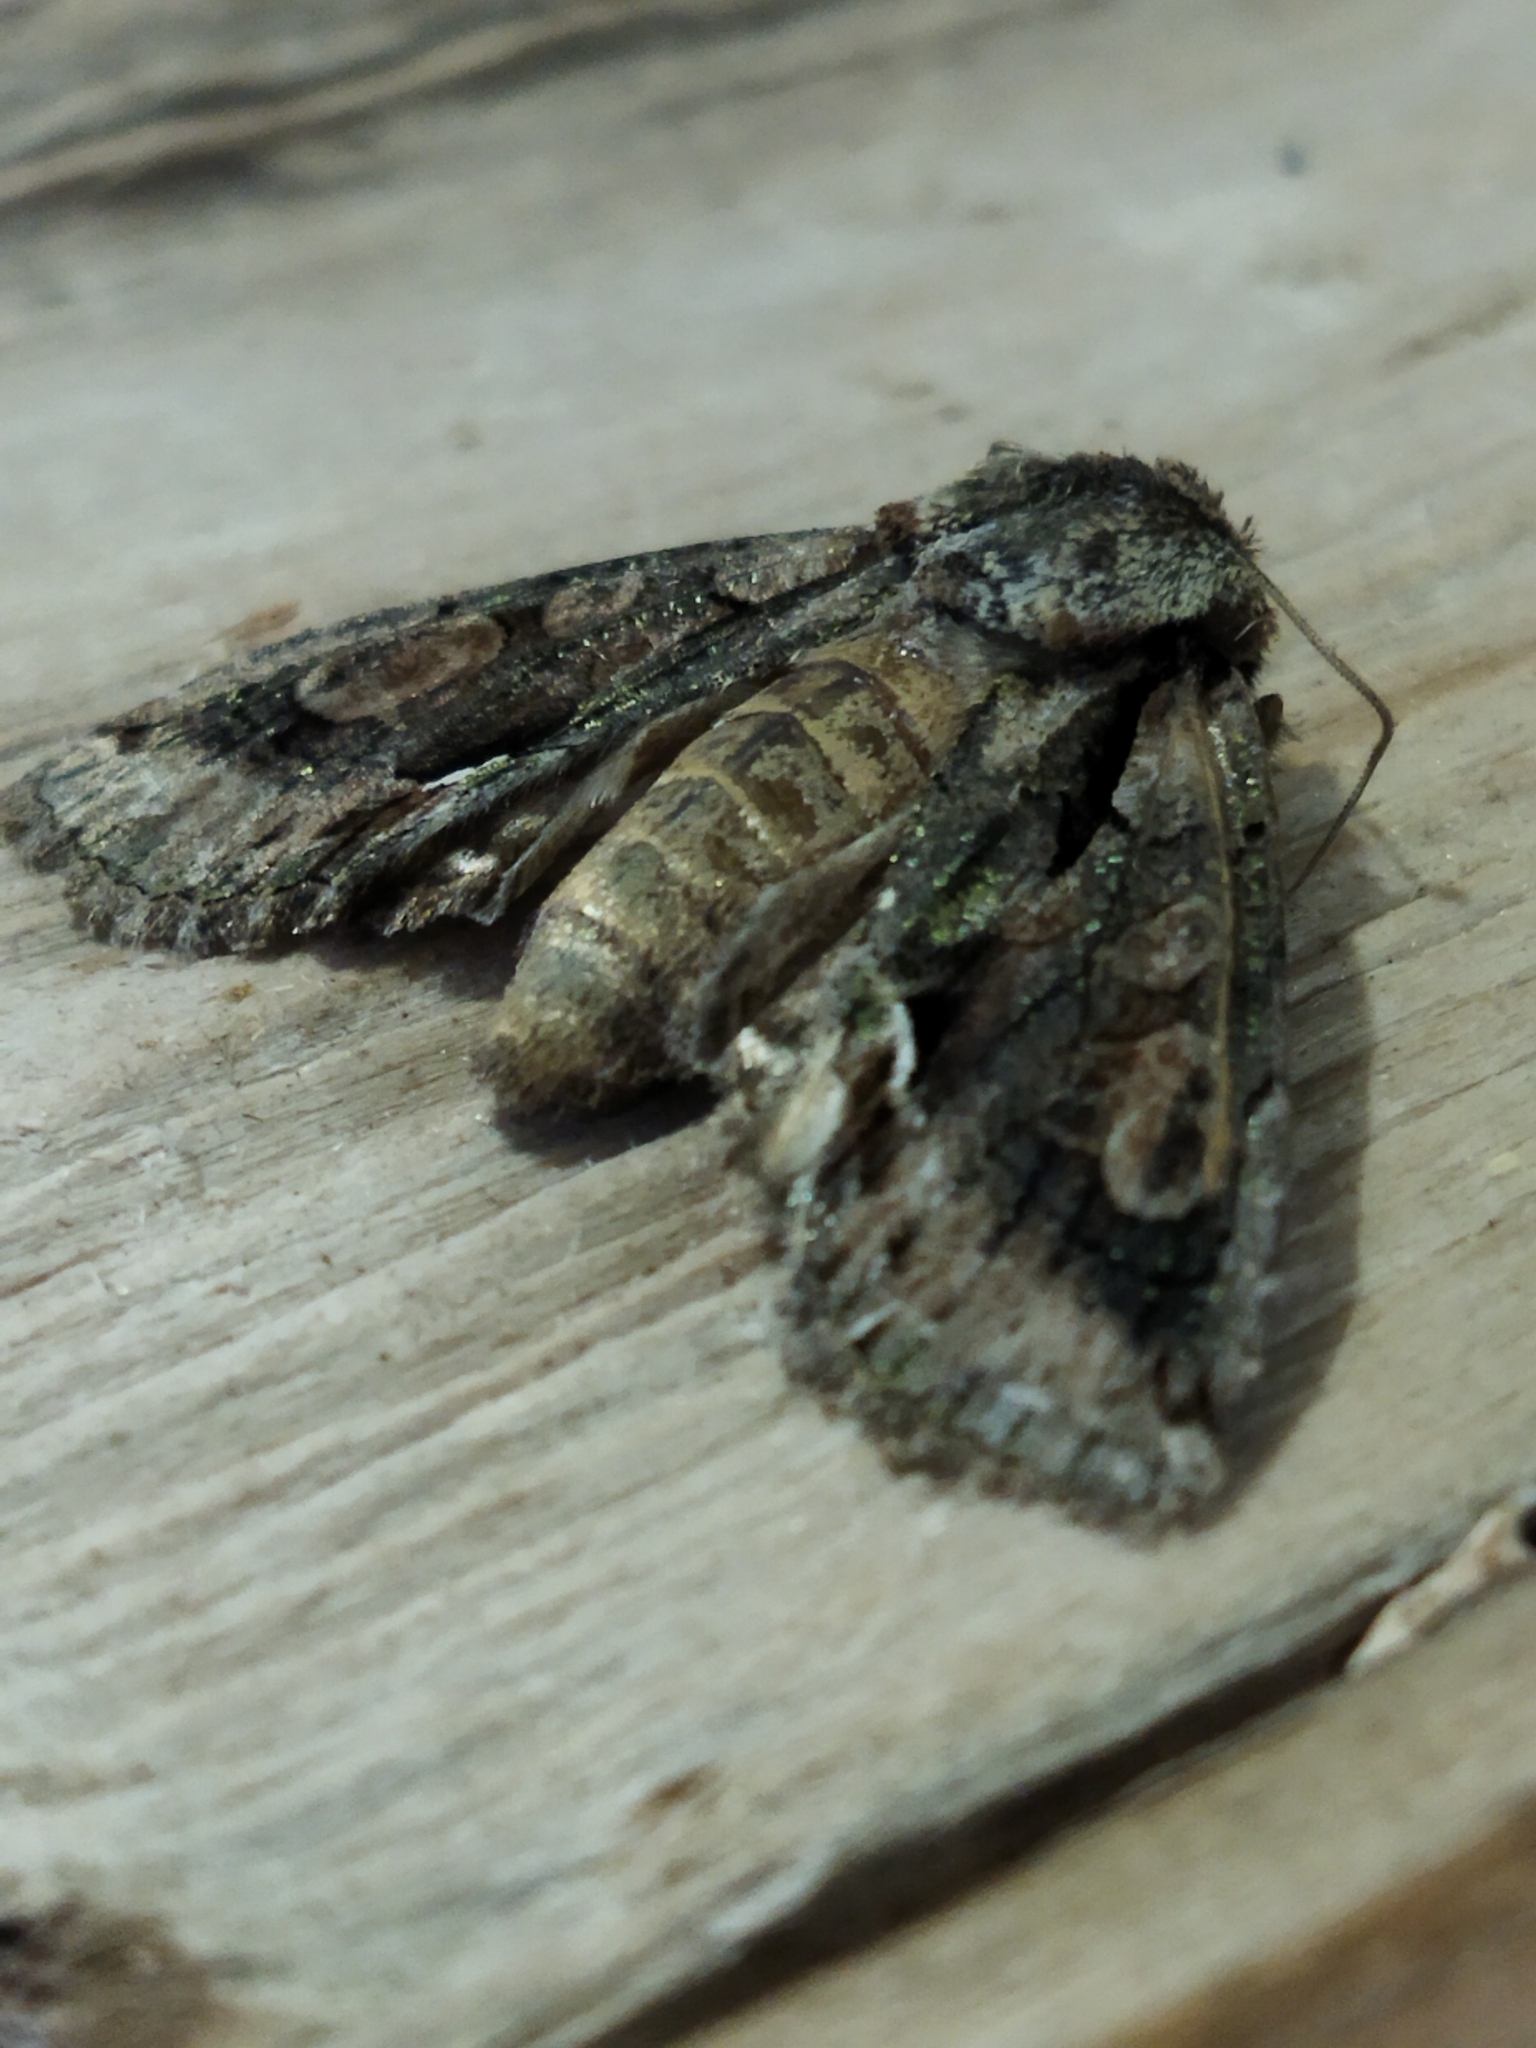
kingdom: Animalia
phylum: Arthropoda
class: Insecta
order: Lepidoptera
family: Noctuidae
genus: Allophyes
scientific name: Allophyes oxyacanthae
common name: Green-brindled crescent
